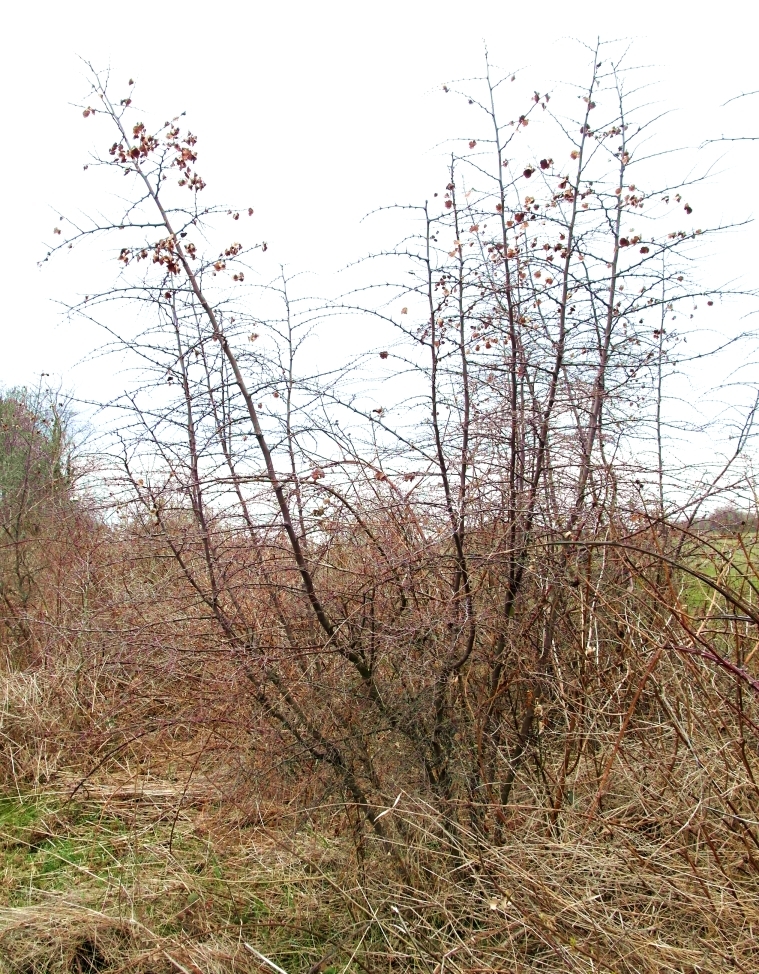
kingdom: Plantae
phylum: Tracheophyta
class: Magnoliopsida
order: Rosales
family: Rhamnaceae
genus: Paliurus
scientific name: Paliurus spina-christi
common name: Jeruselem thorn
